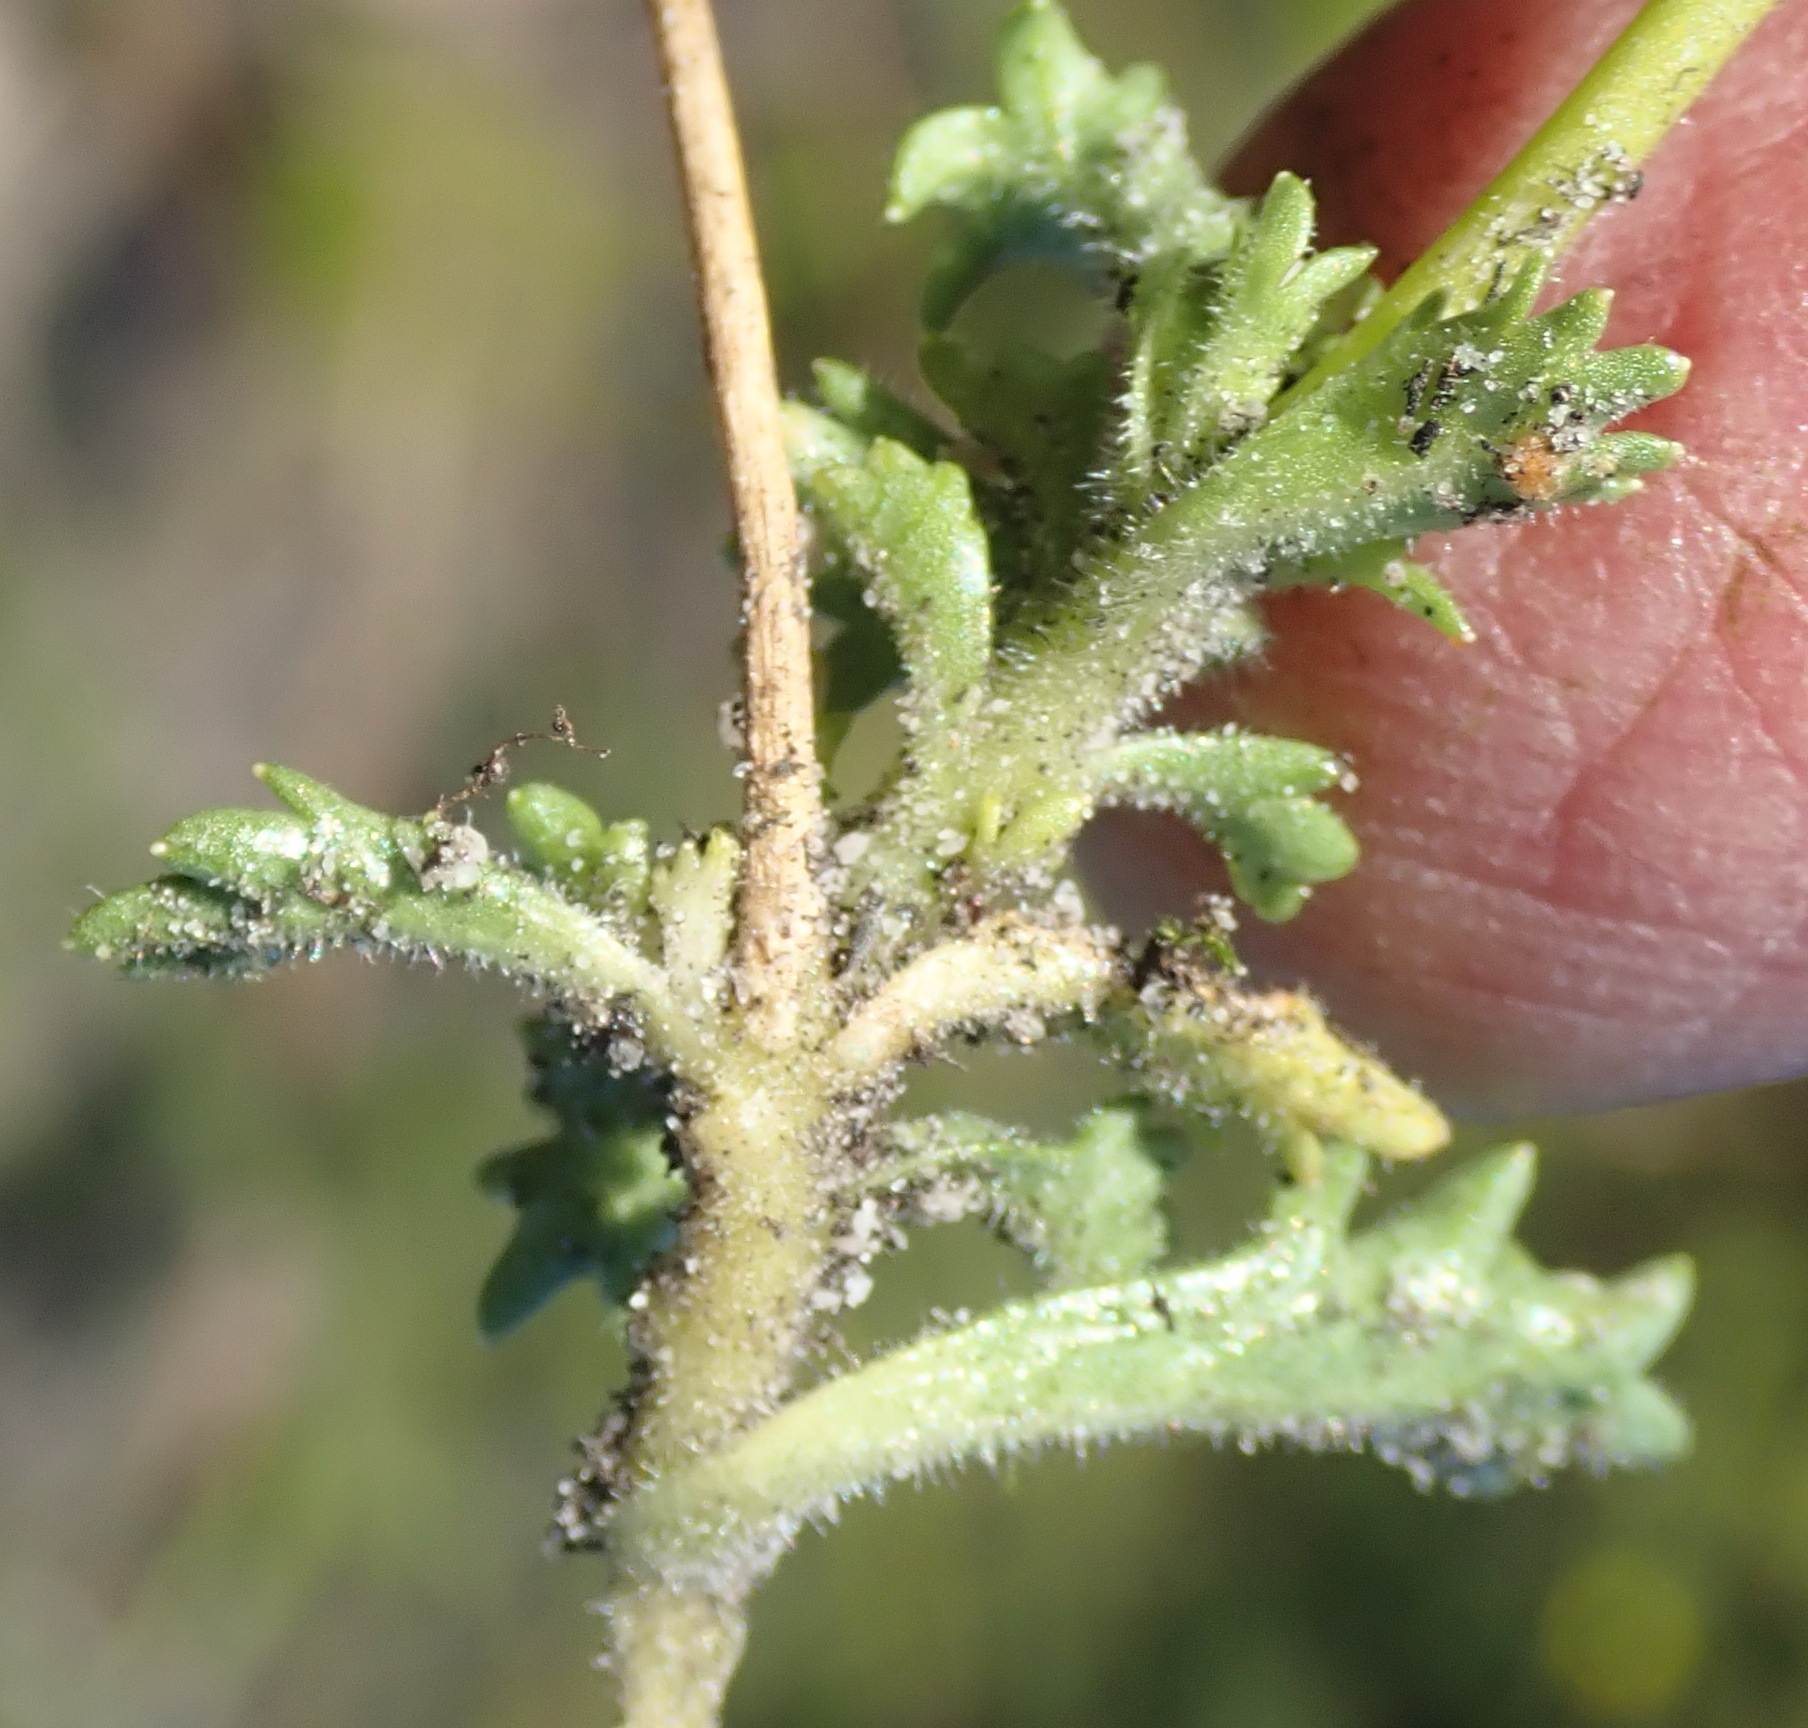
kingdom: Plantae
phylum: Tracheophyta
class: Magnoliopsida
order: Asterales
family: Campanulaceae
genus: Lobelia
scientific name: Lobelia tomentosa
